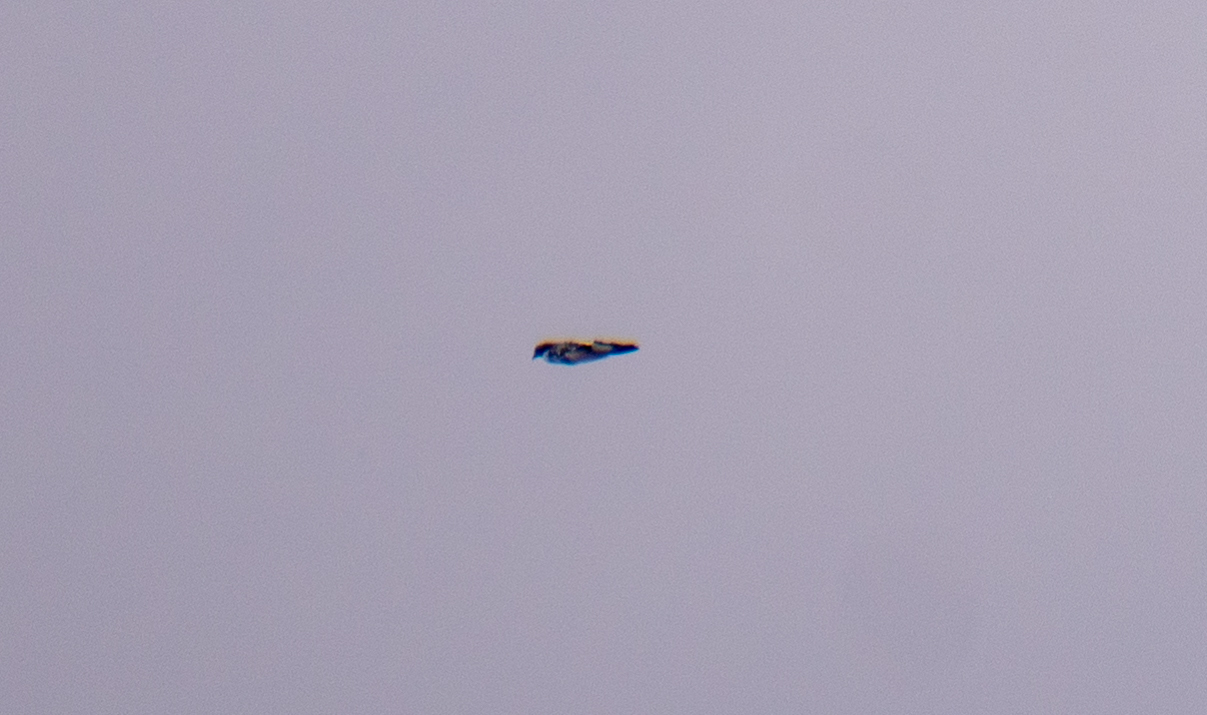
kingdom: Animalia
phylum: Chordata
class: Aves
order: Coraciiformes
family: Alcedinidae
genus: Ceryle
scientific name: Ceryle rudis
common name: Pied kingfisher
